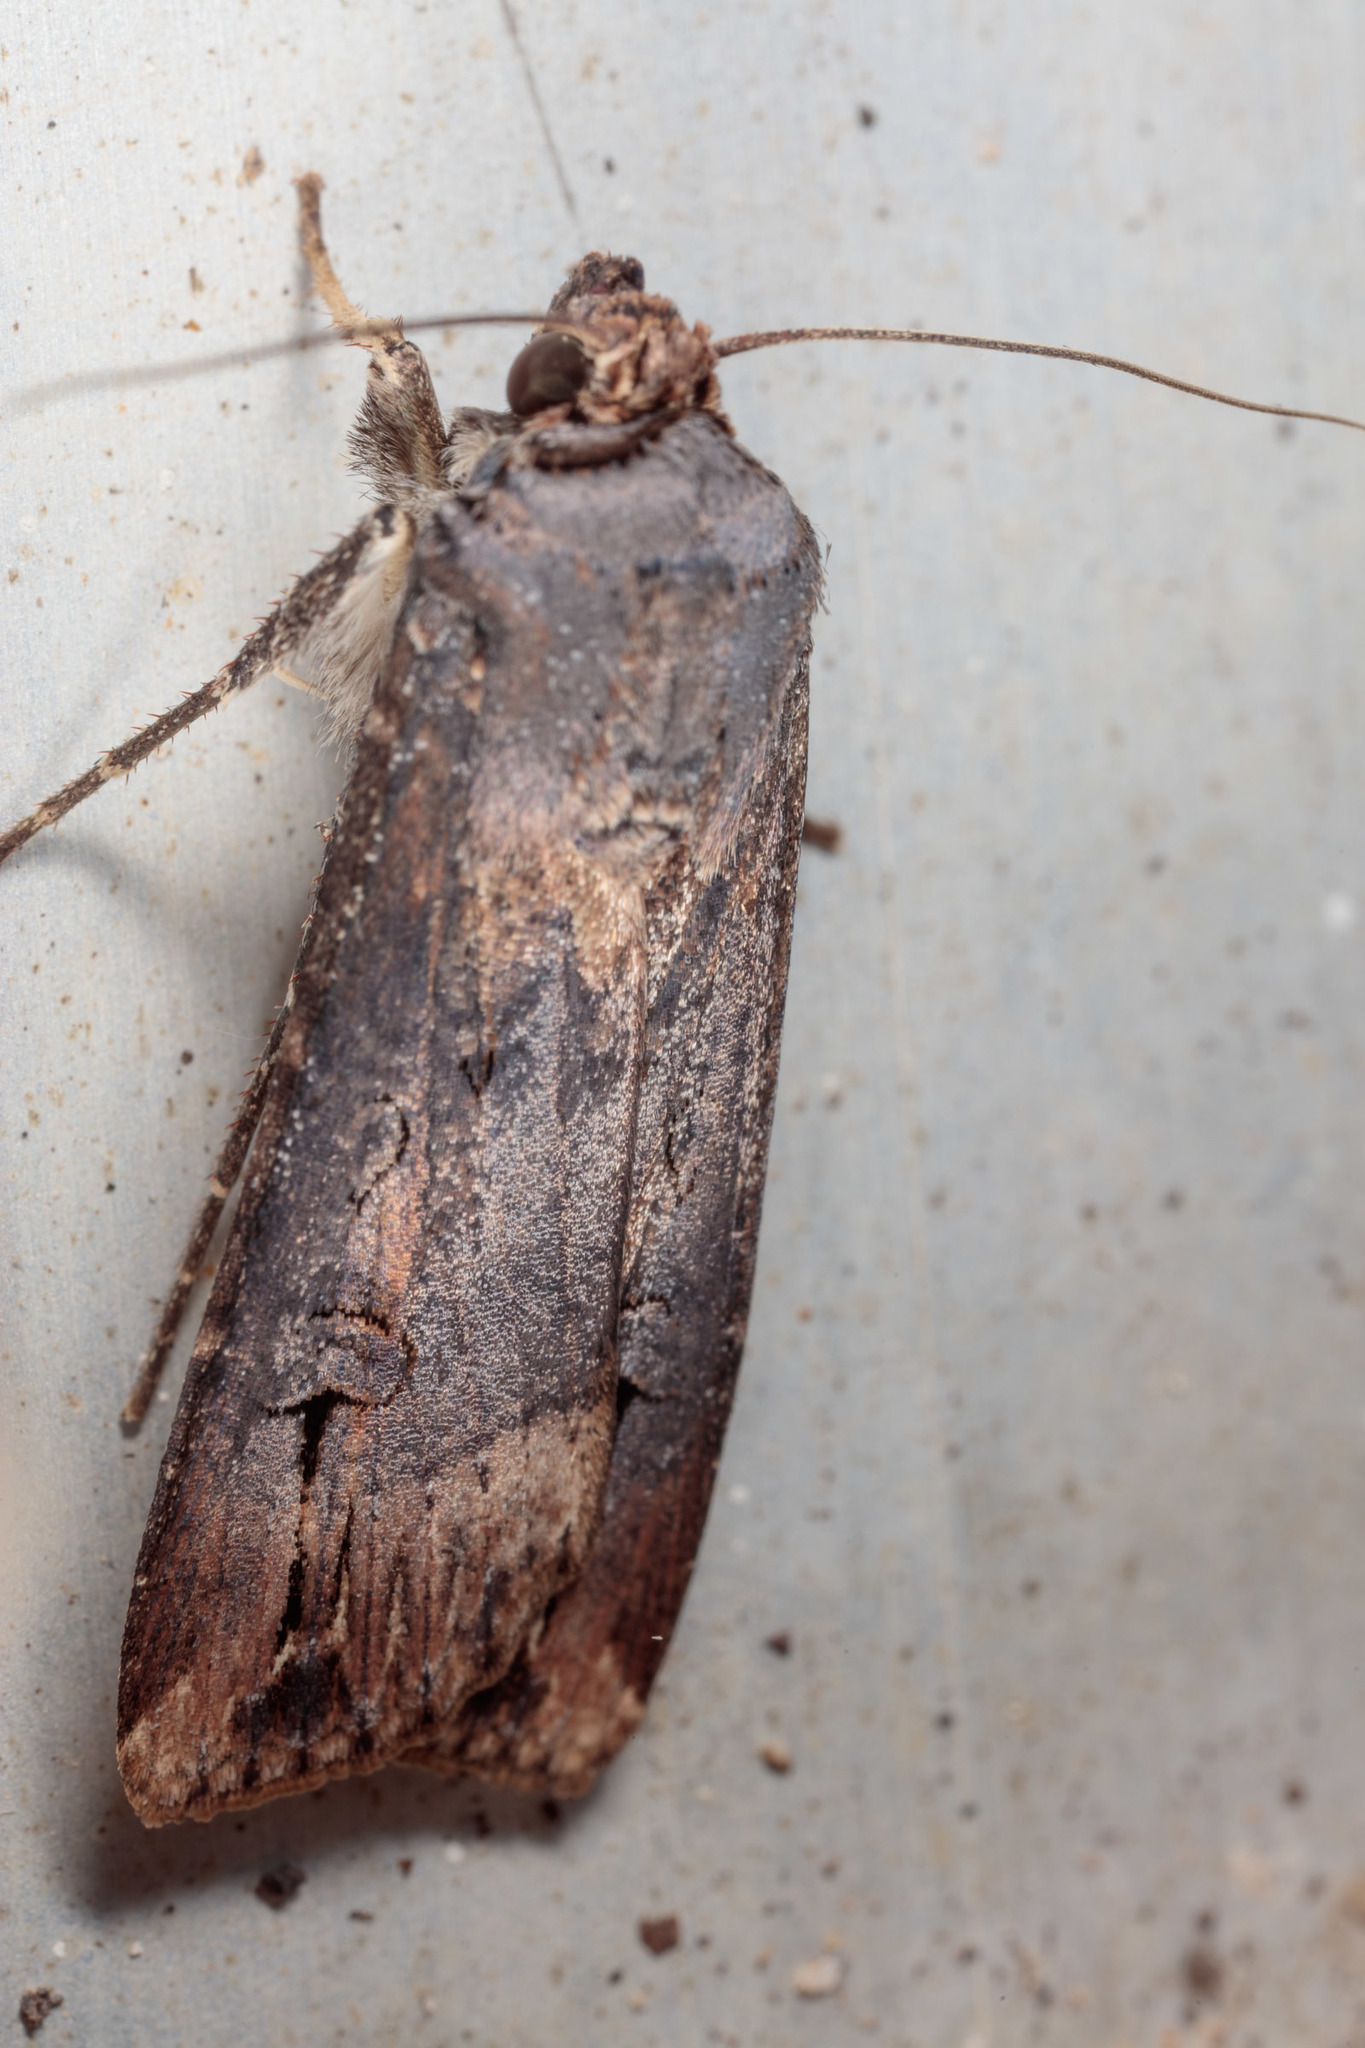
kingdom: Animalia
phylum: Arthropoda
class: Insecta
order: Lepidoptera
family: Noctuidae
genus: Agrotis
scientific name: Agrotis ipsilon
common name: Dark sword-grass
